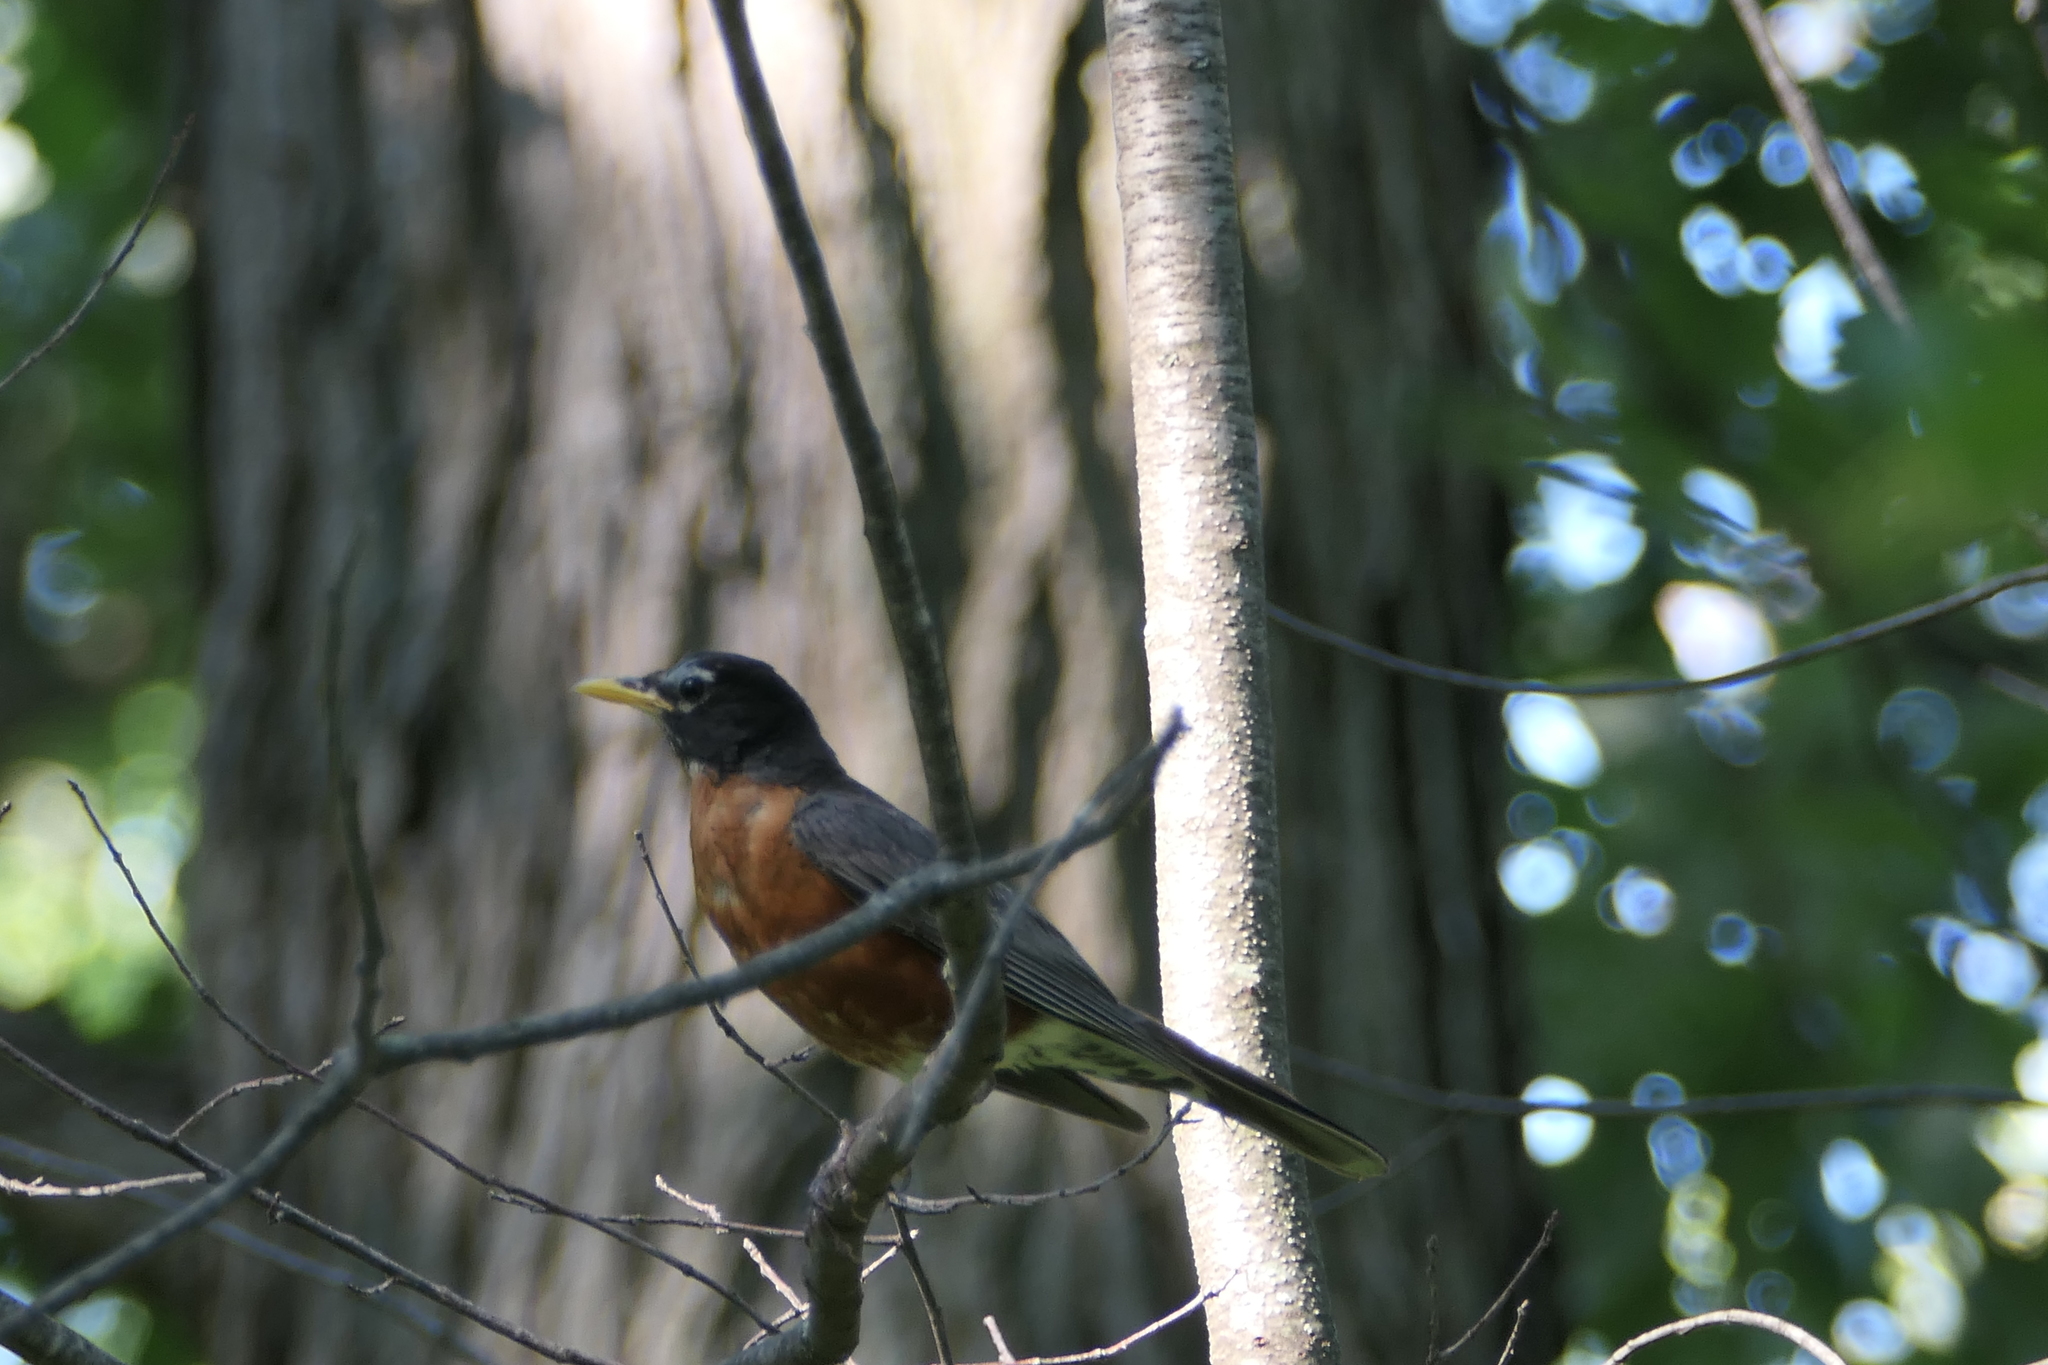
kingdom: Animalia
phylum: Chordata
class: Aves
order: Passeriformes
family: Turdidae
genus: Turdus
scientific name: Turdus migratorius
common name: American robin
